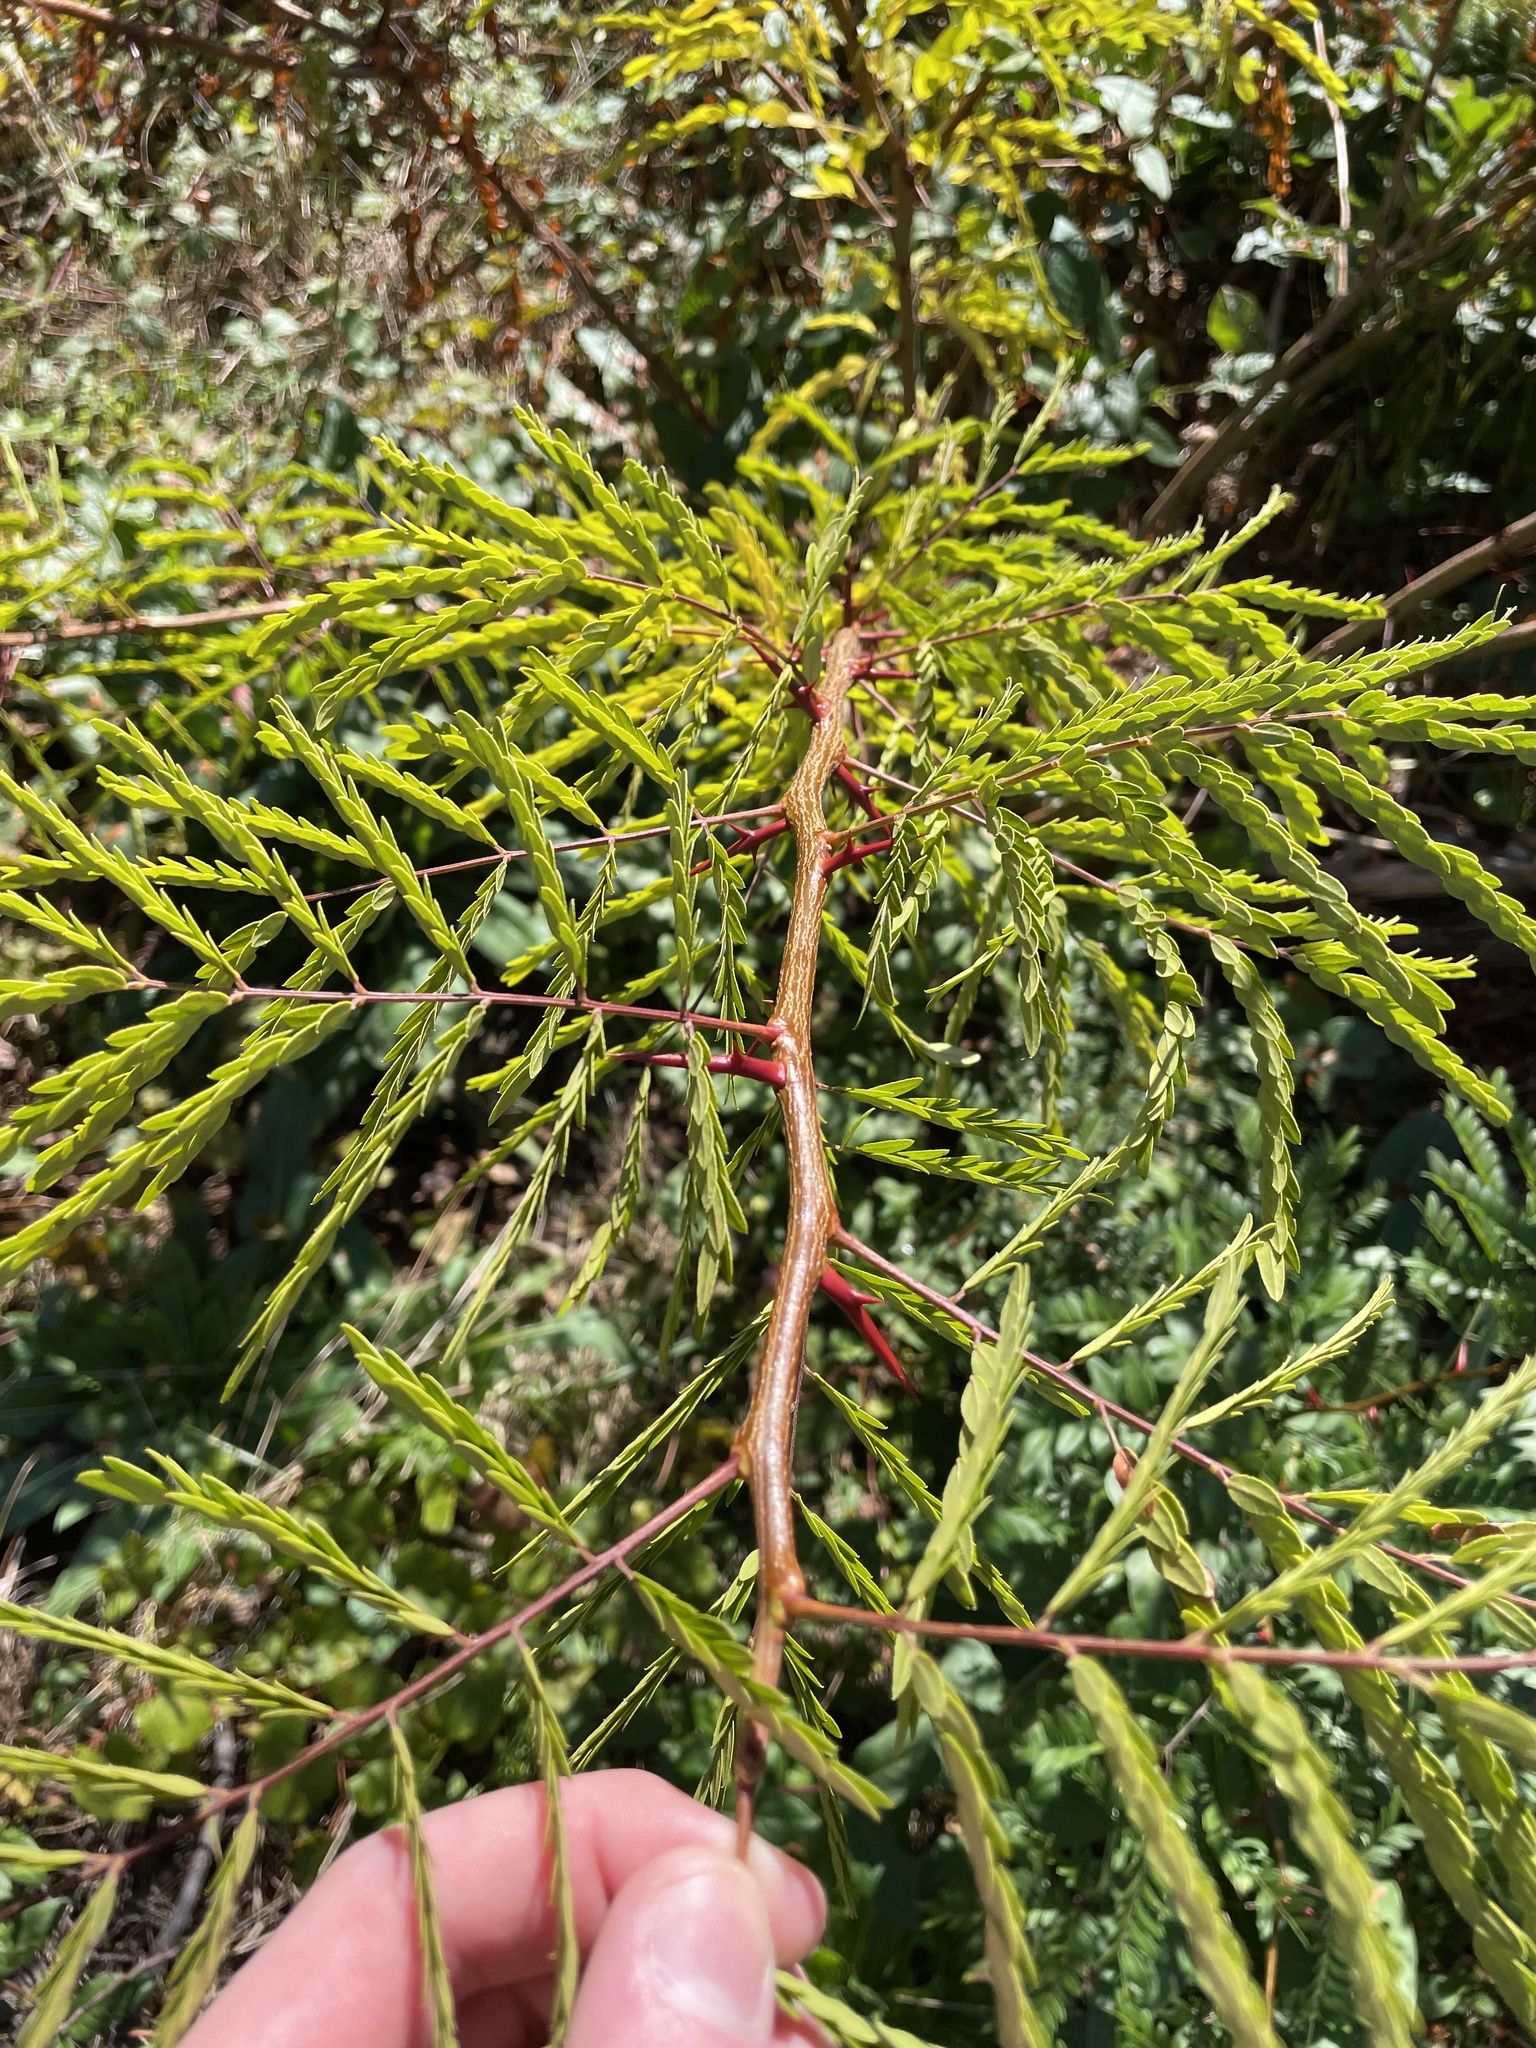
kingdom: Plantae
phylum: Tracheophyta
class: Magnoliopsida
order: Fabales
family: Fabaceae
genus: Gleditsia
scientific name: Gleditsia triacanthos
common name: Common honeylocust
